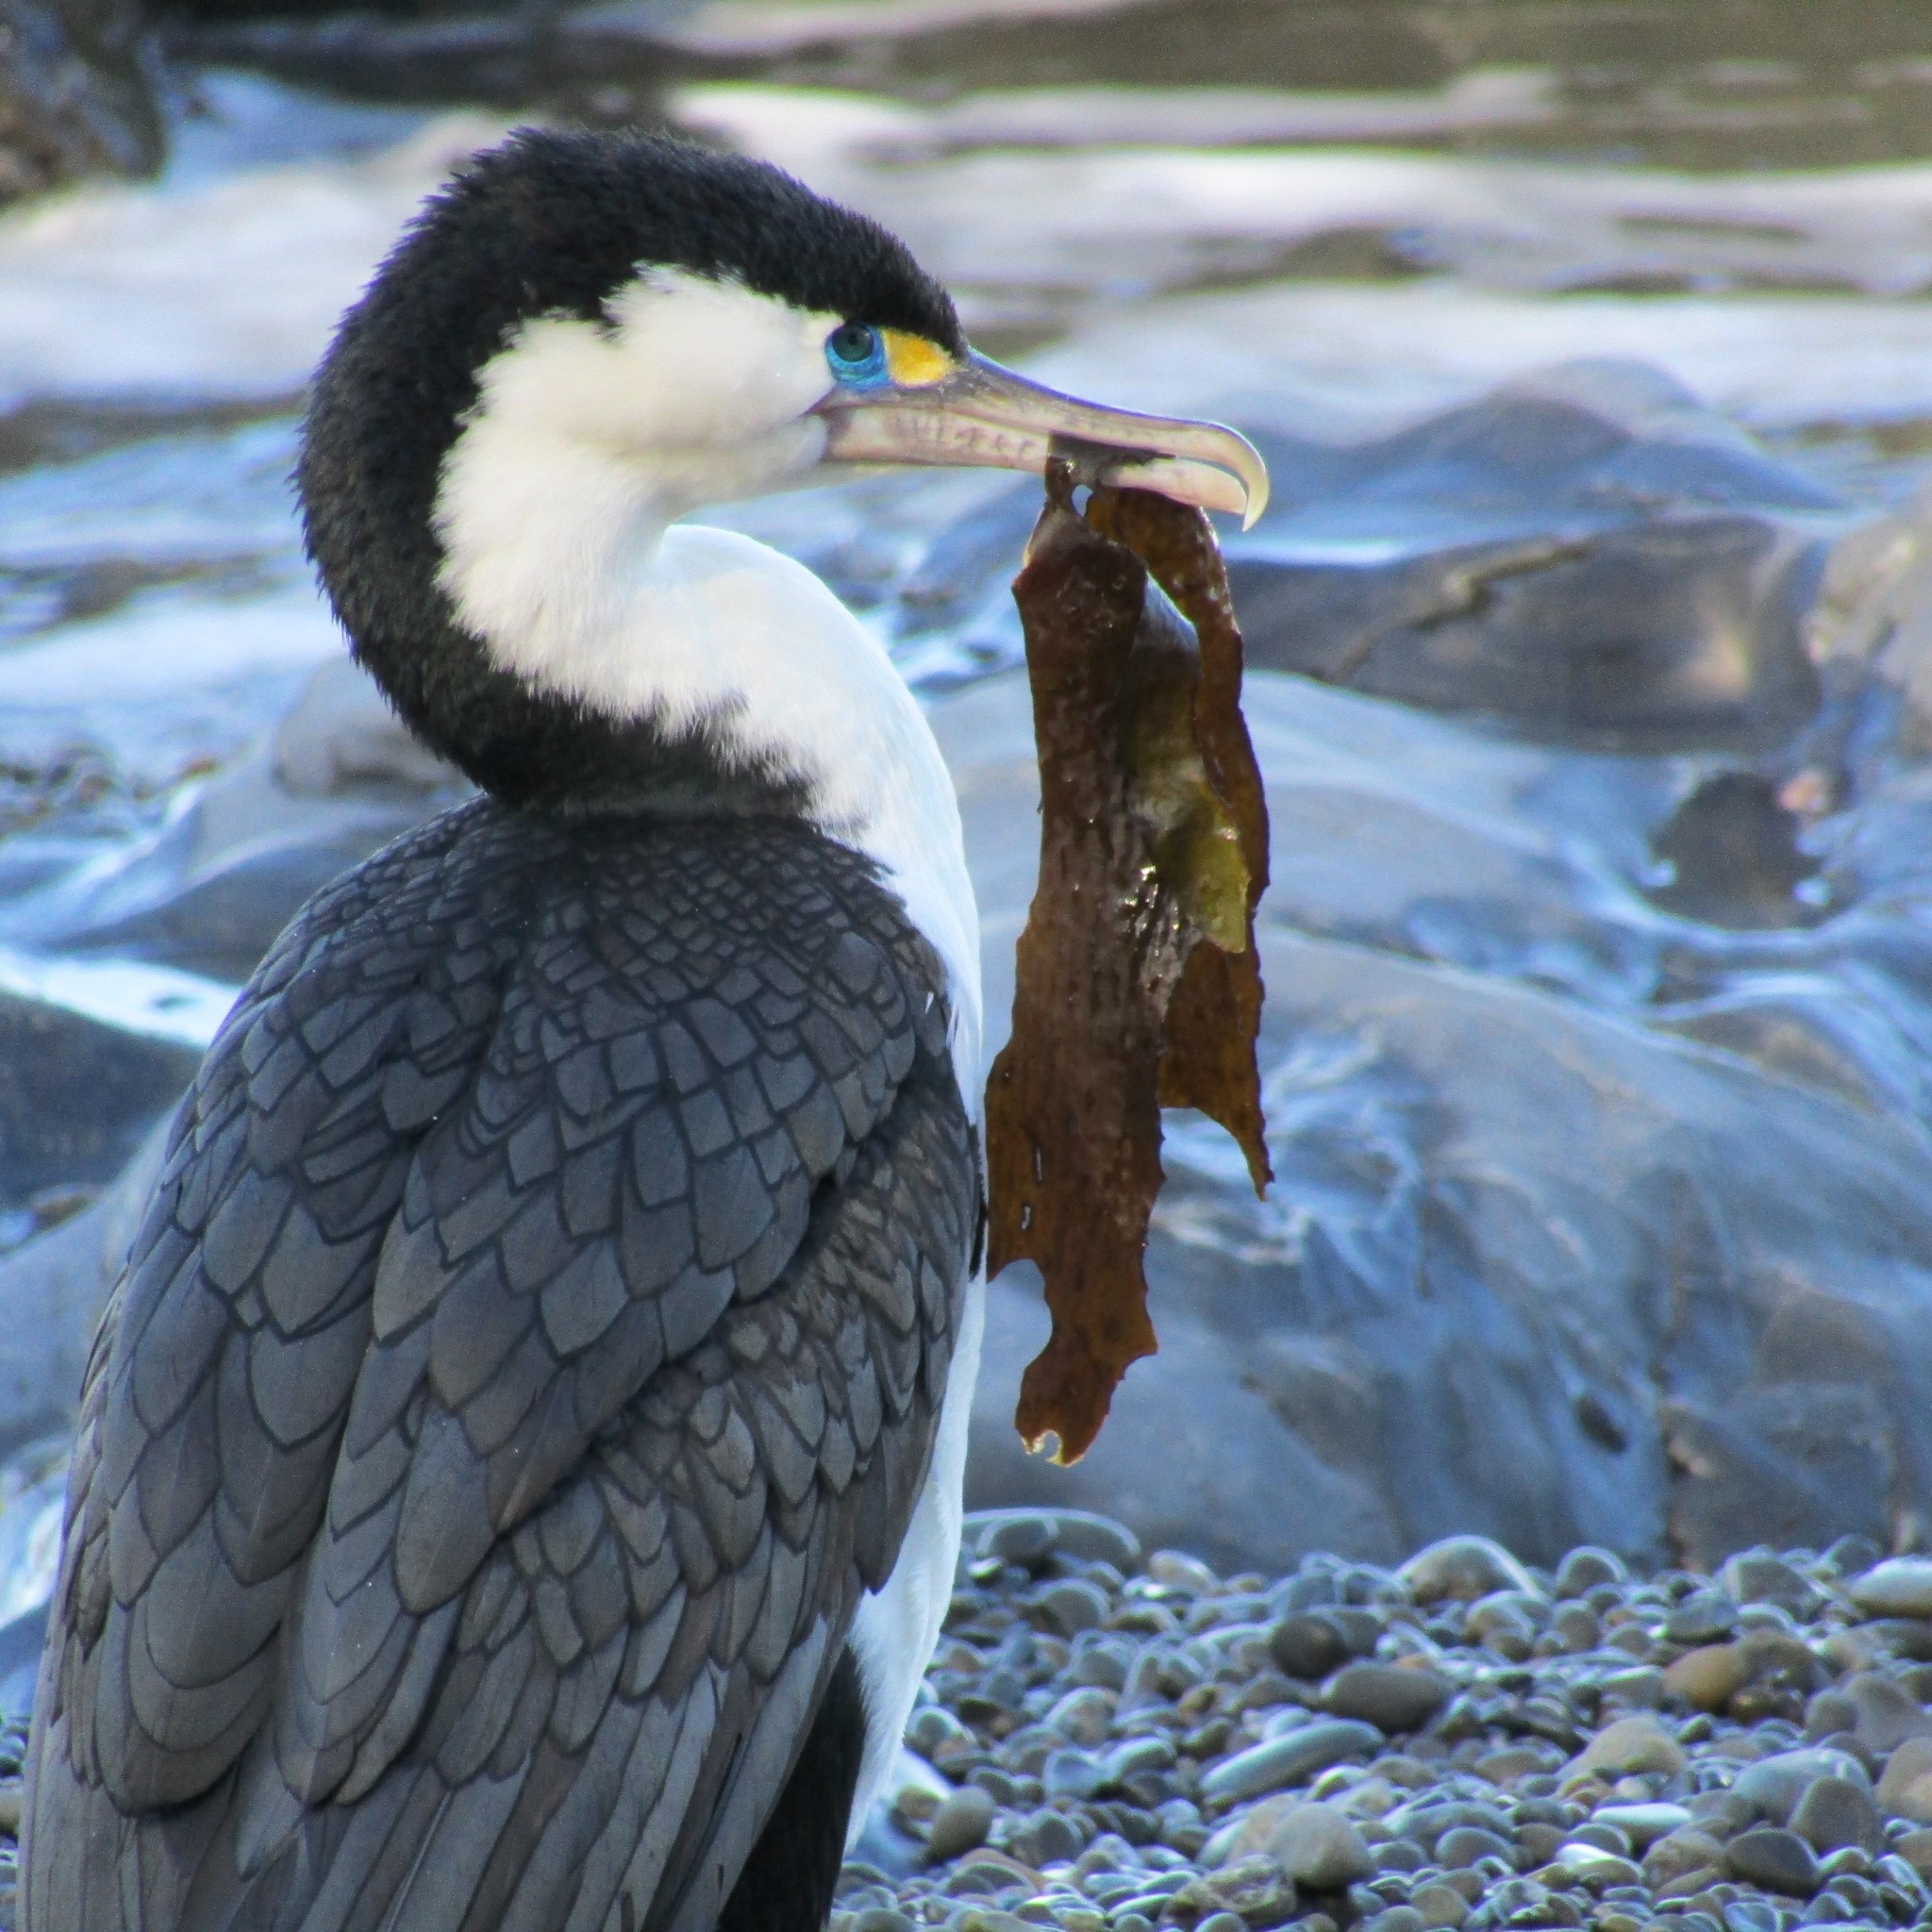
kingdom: Animalia
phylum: Chordata
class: Aves
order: Suliformes
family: Phalacrocoracidae
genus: Phalacrocorax
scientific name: Phalacrocorax varius
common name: Pied cormorant
